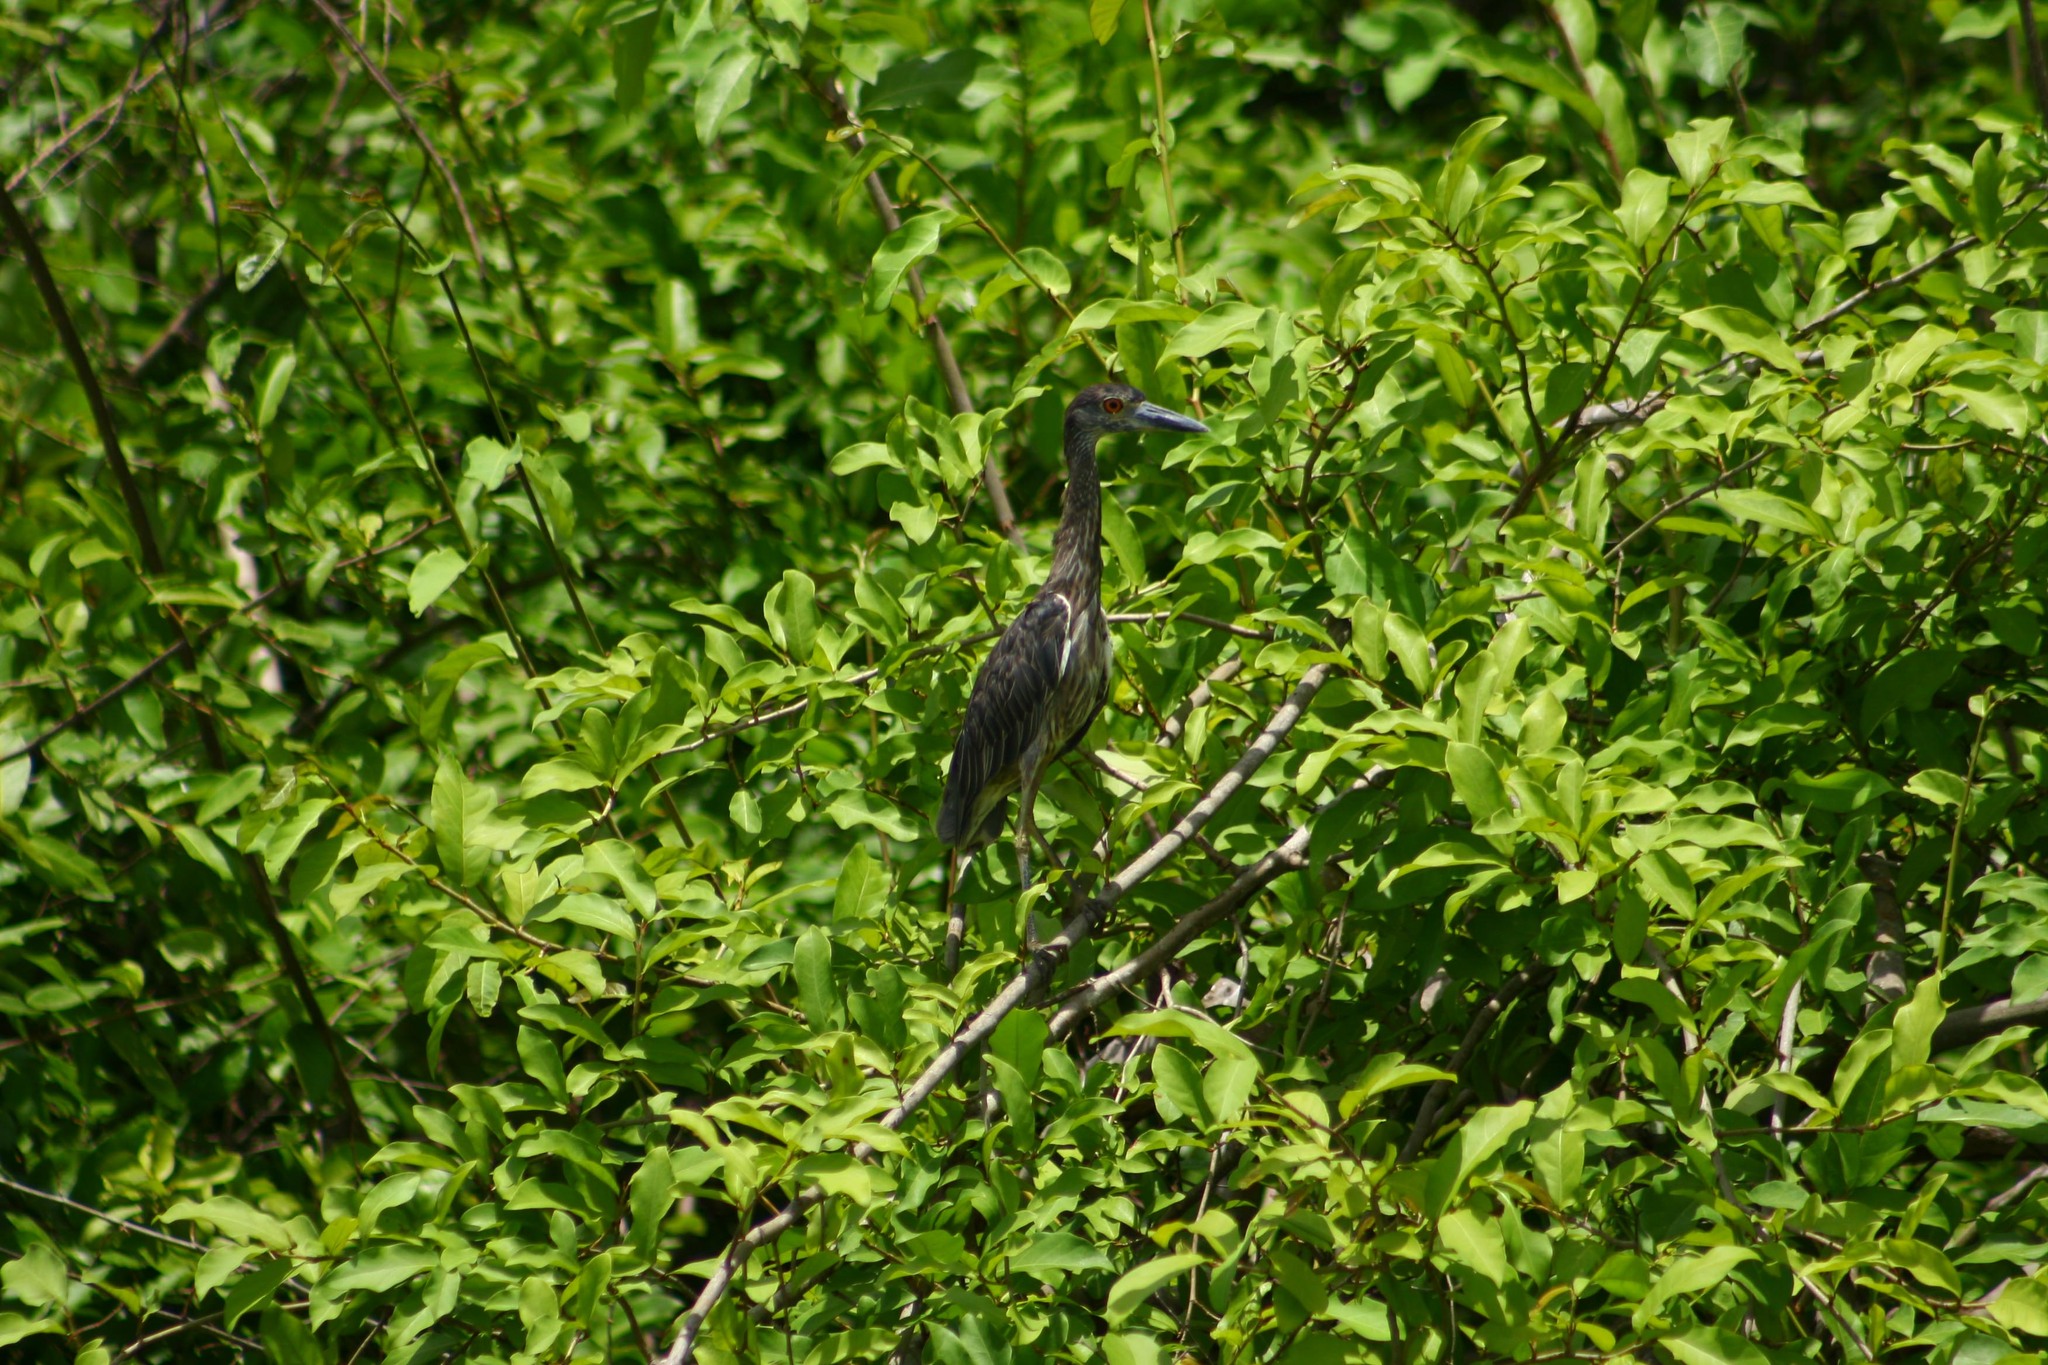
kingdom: Animalia
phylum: Chordata
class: Aves
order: Pelecaniformes
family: Ardeidae
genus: Nyctanassa
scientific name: Nyctanassa violacea
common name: Yellow-crowned night heron
